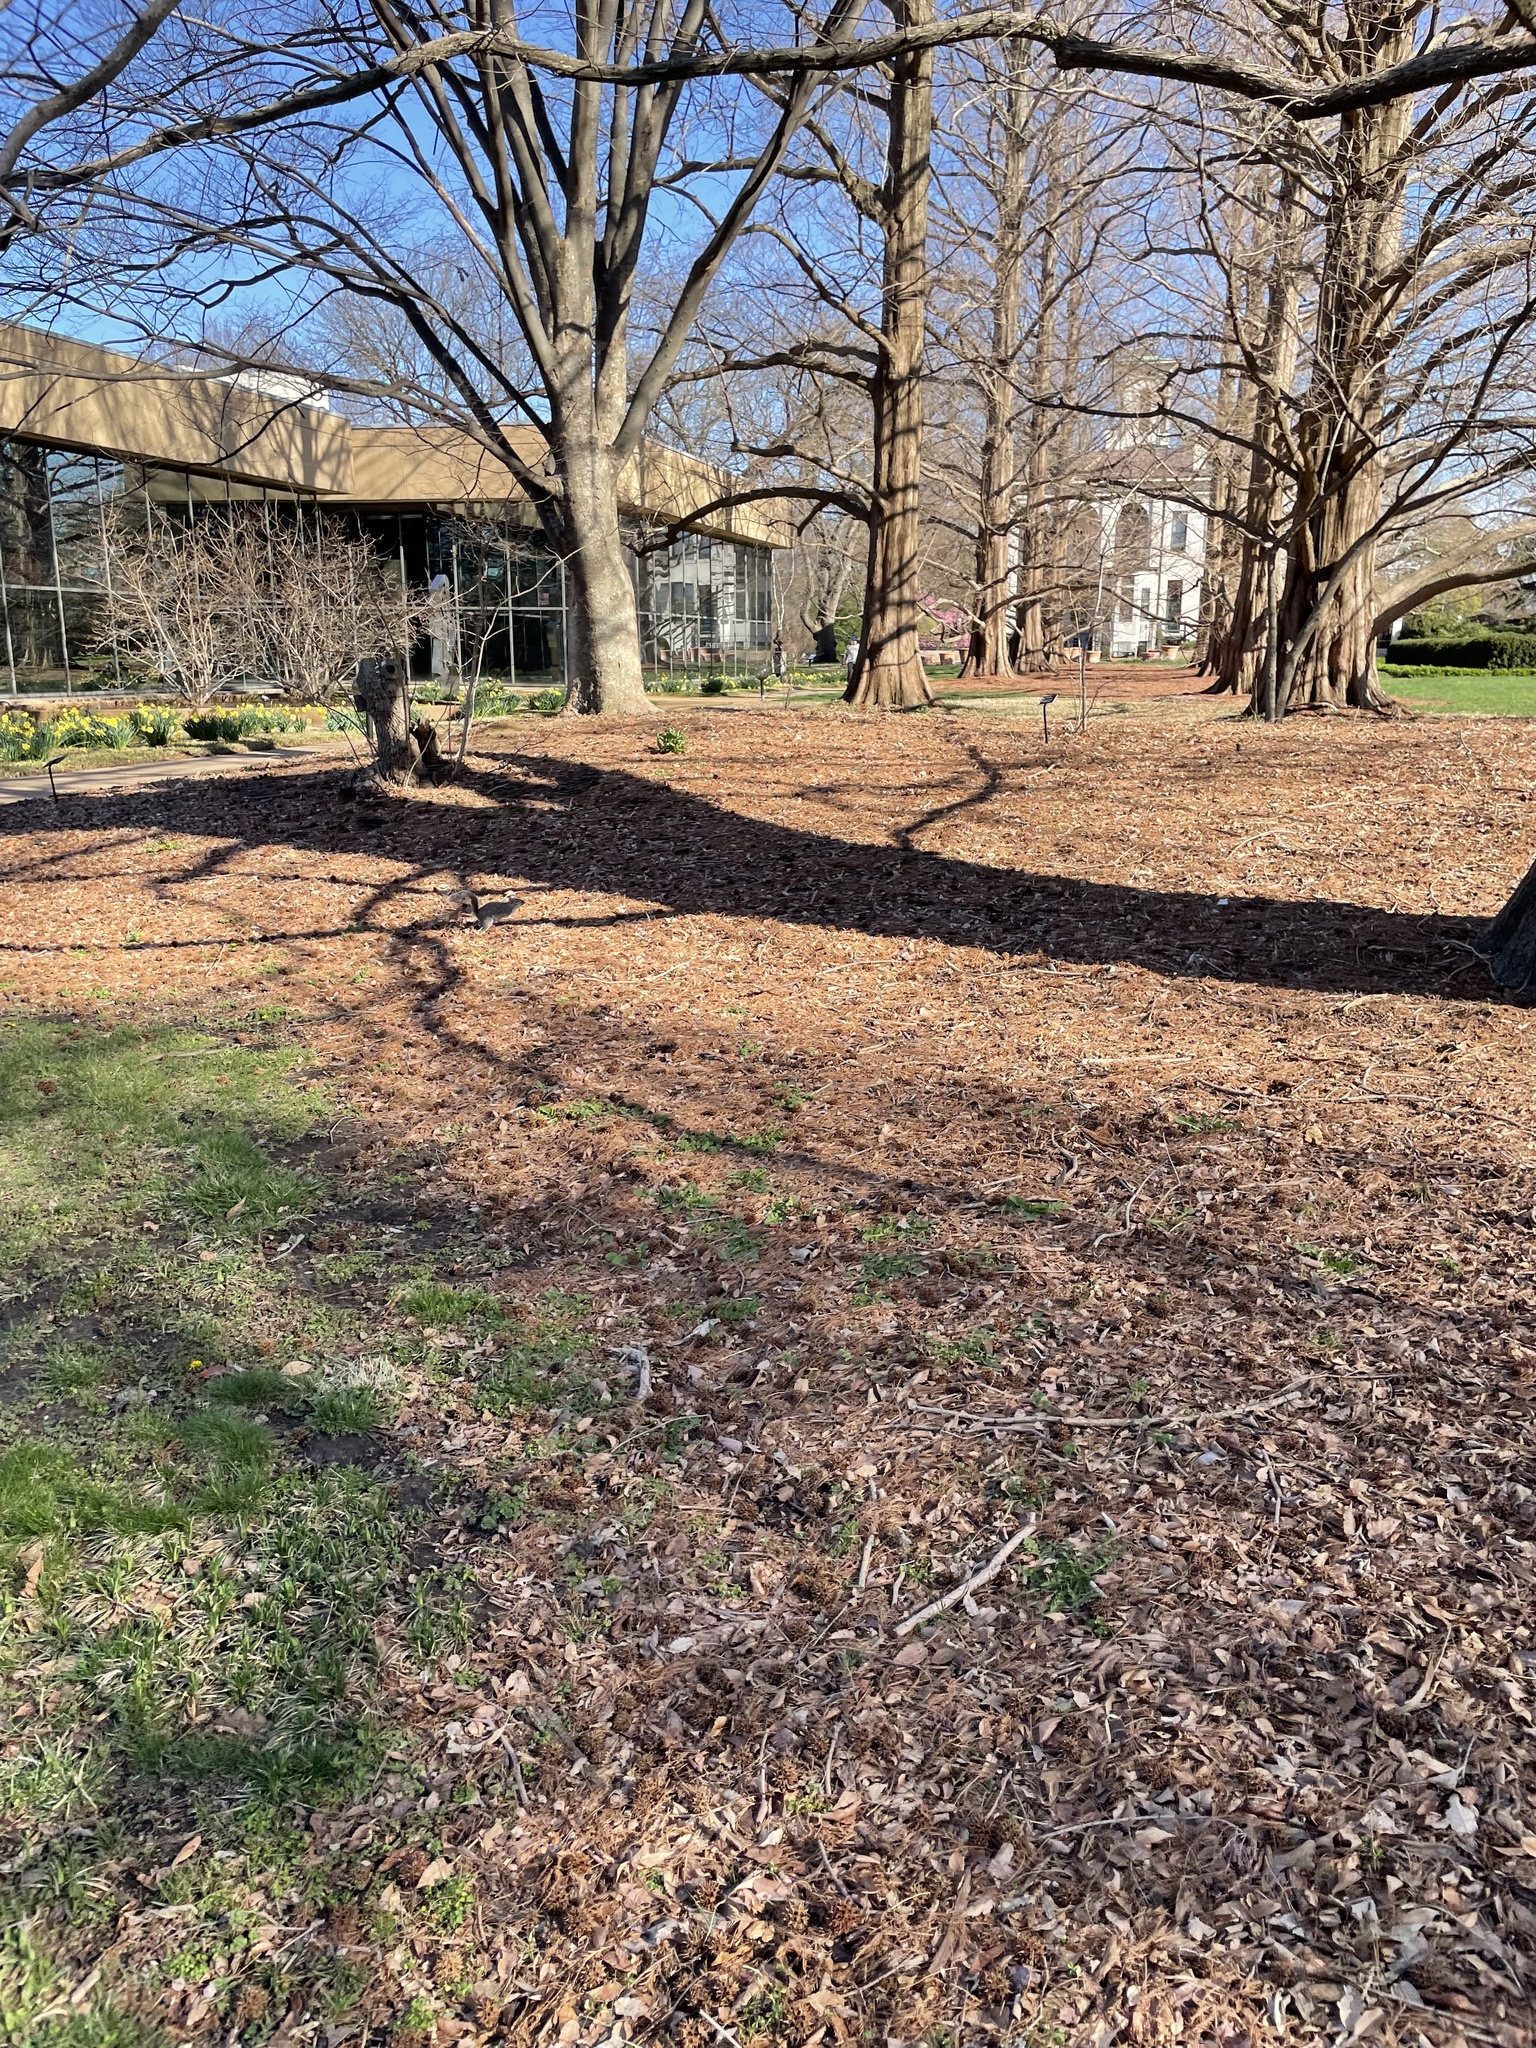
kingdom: Animalia
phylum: Chordata
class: Mammalia
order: Rodentia
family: Sciuridae
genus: Sciurus
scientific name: Sciurus carolinensis
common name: Eastern gray squirrel
